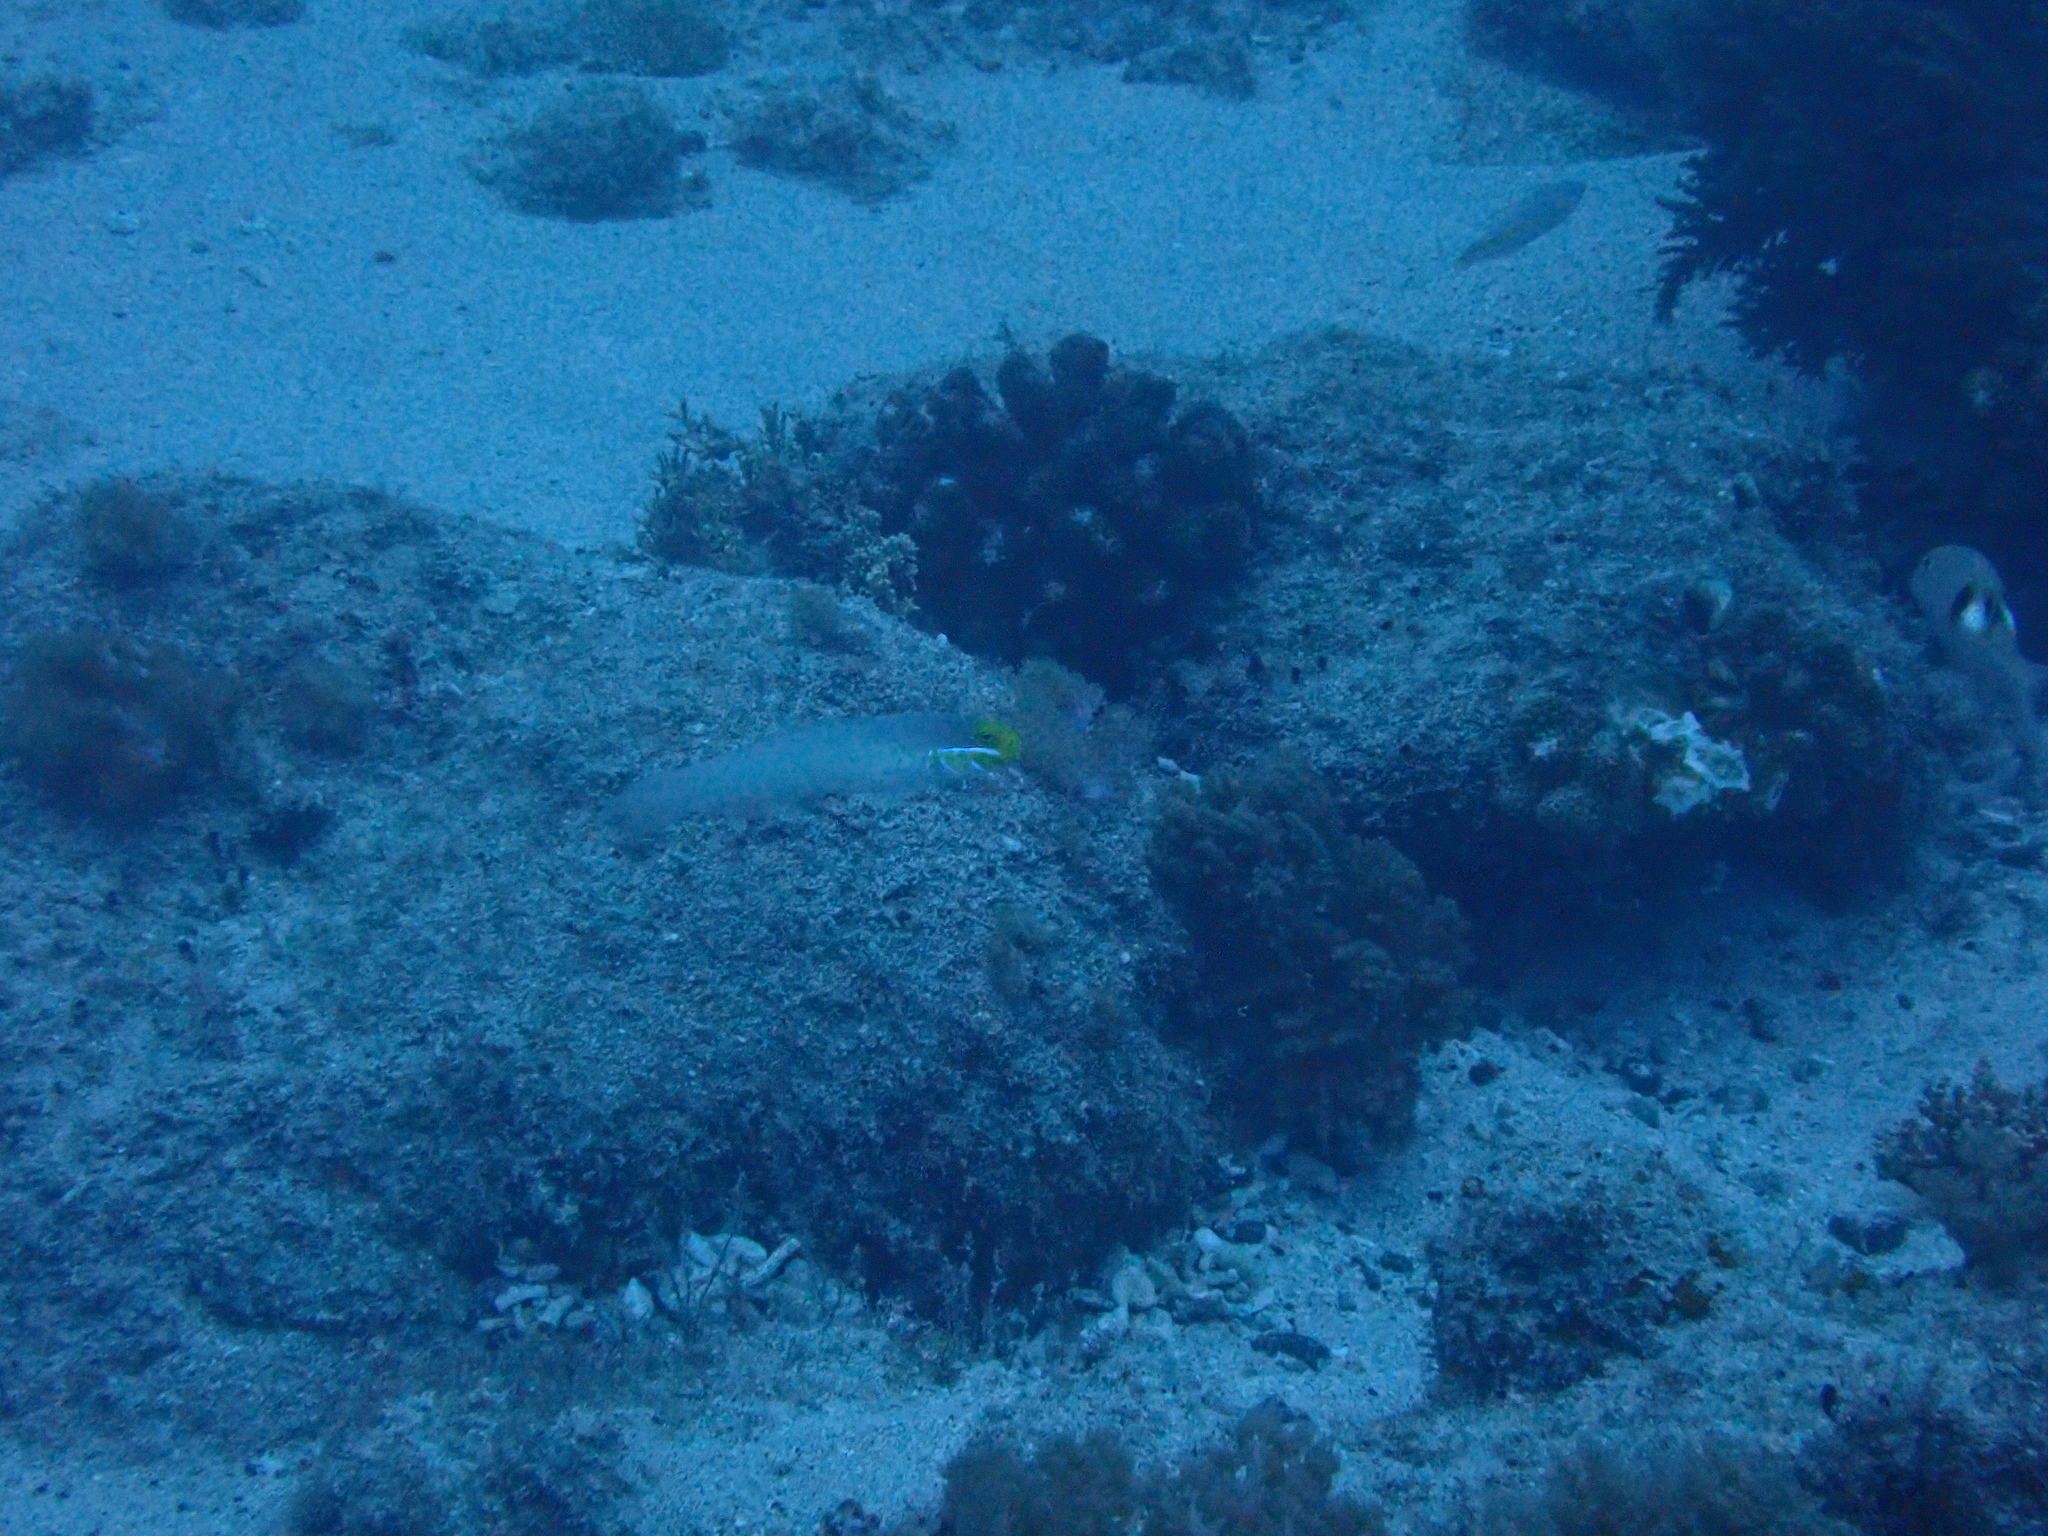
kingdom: Animalia
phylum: Chordata
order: Perciformes
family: Gobiidae
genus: Valenciennea
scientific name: Valenciennea strigata
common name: Blueband goby
